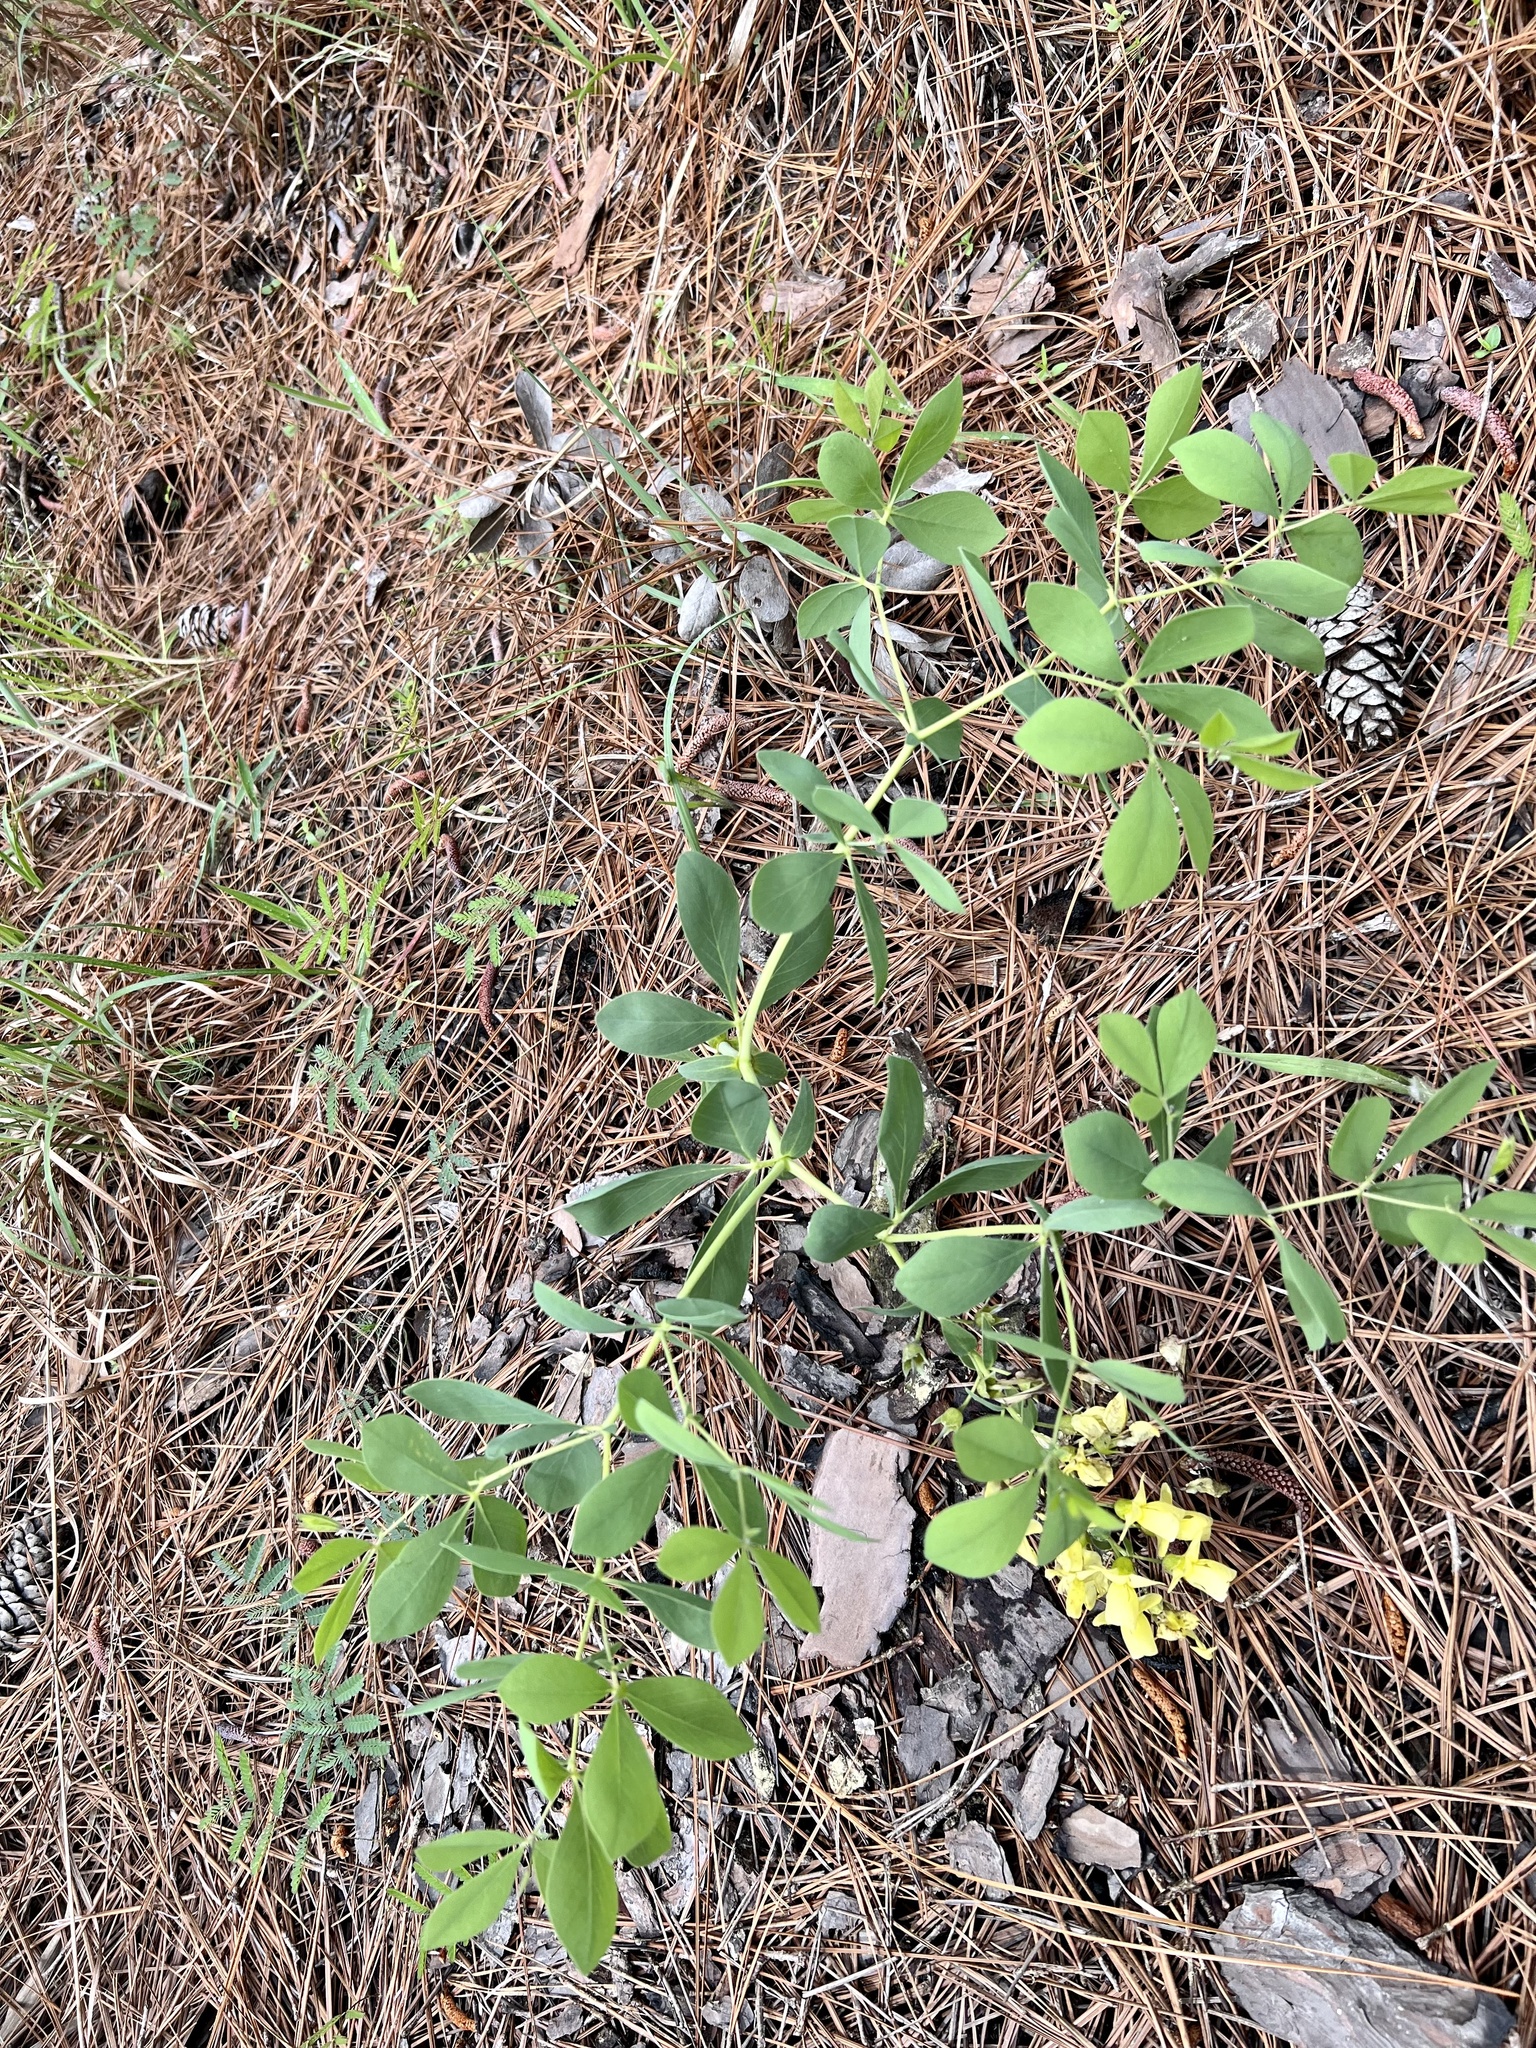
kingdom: Plantae
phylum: Tracheophyta
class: Magnoliopsida
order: Fabales
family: Fabaceae
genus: Baptisia
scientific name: Baptisia bracteata
